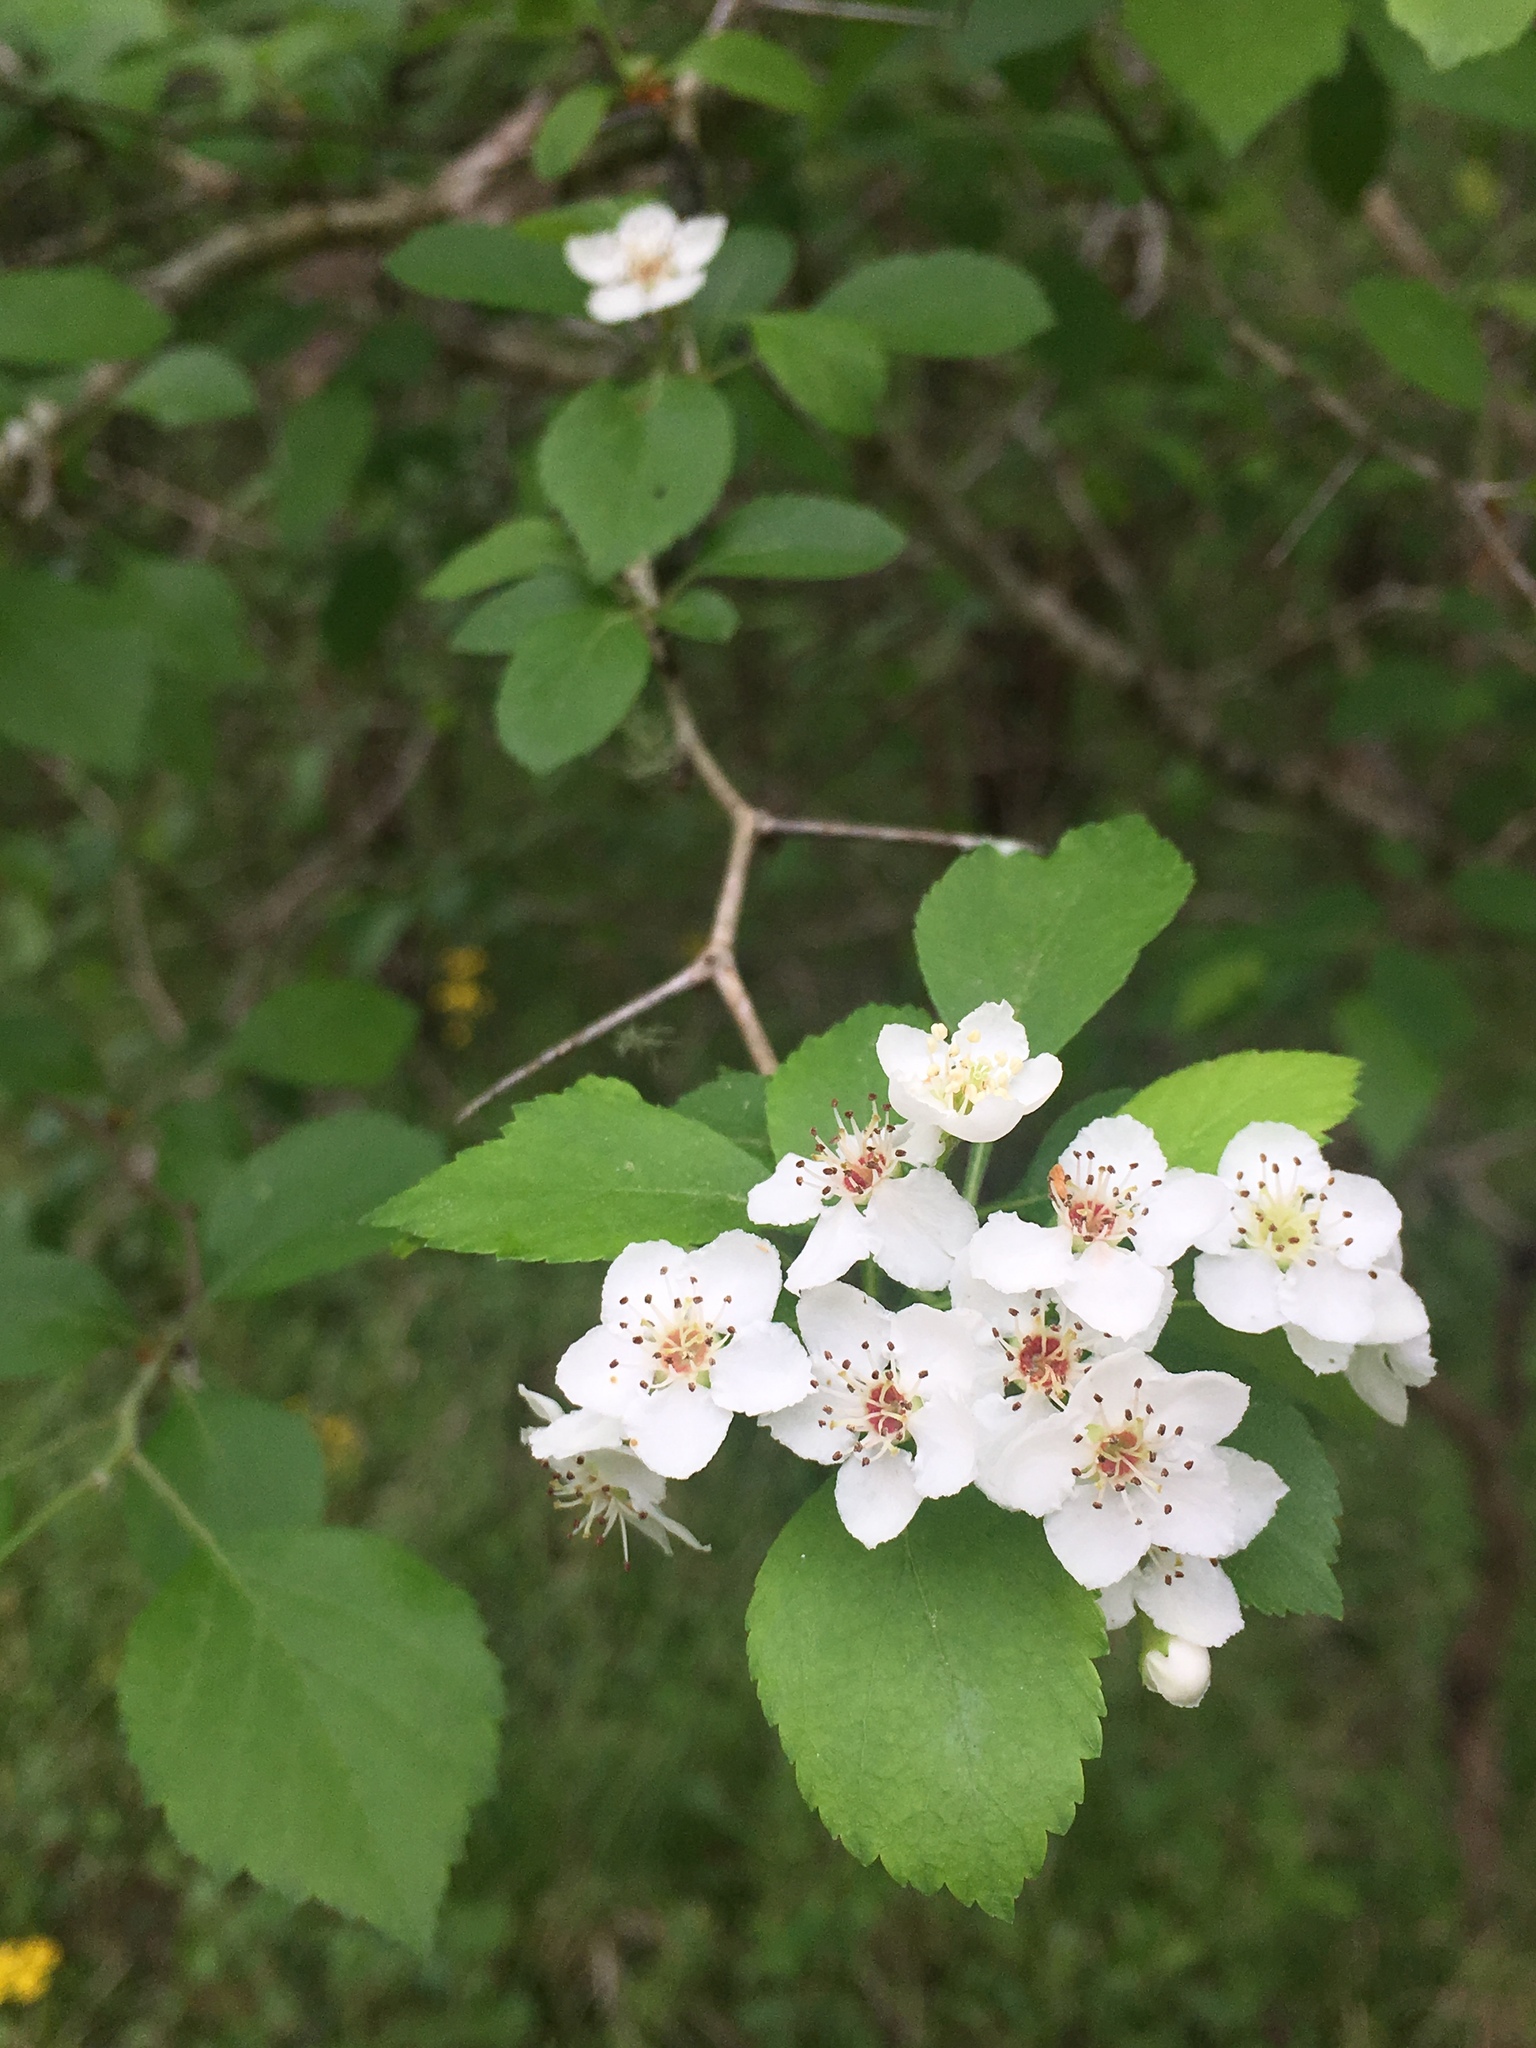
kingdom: Plantae
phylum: Tracheophyta
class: Magnoliopsida
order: Rosales
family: Rosaceae
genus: Crataegus
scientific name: Crataegus viridis
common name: Southernthorn
